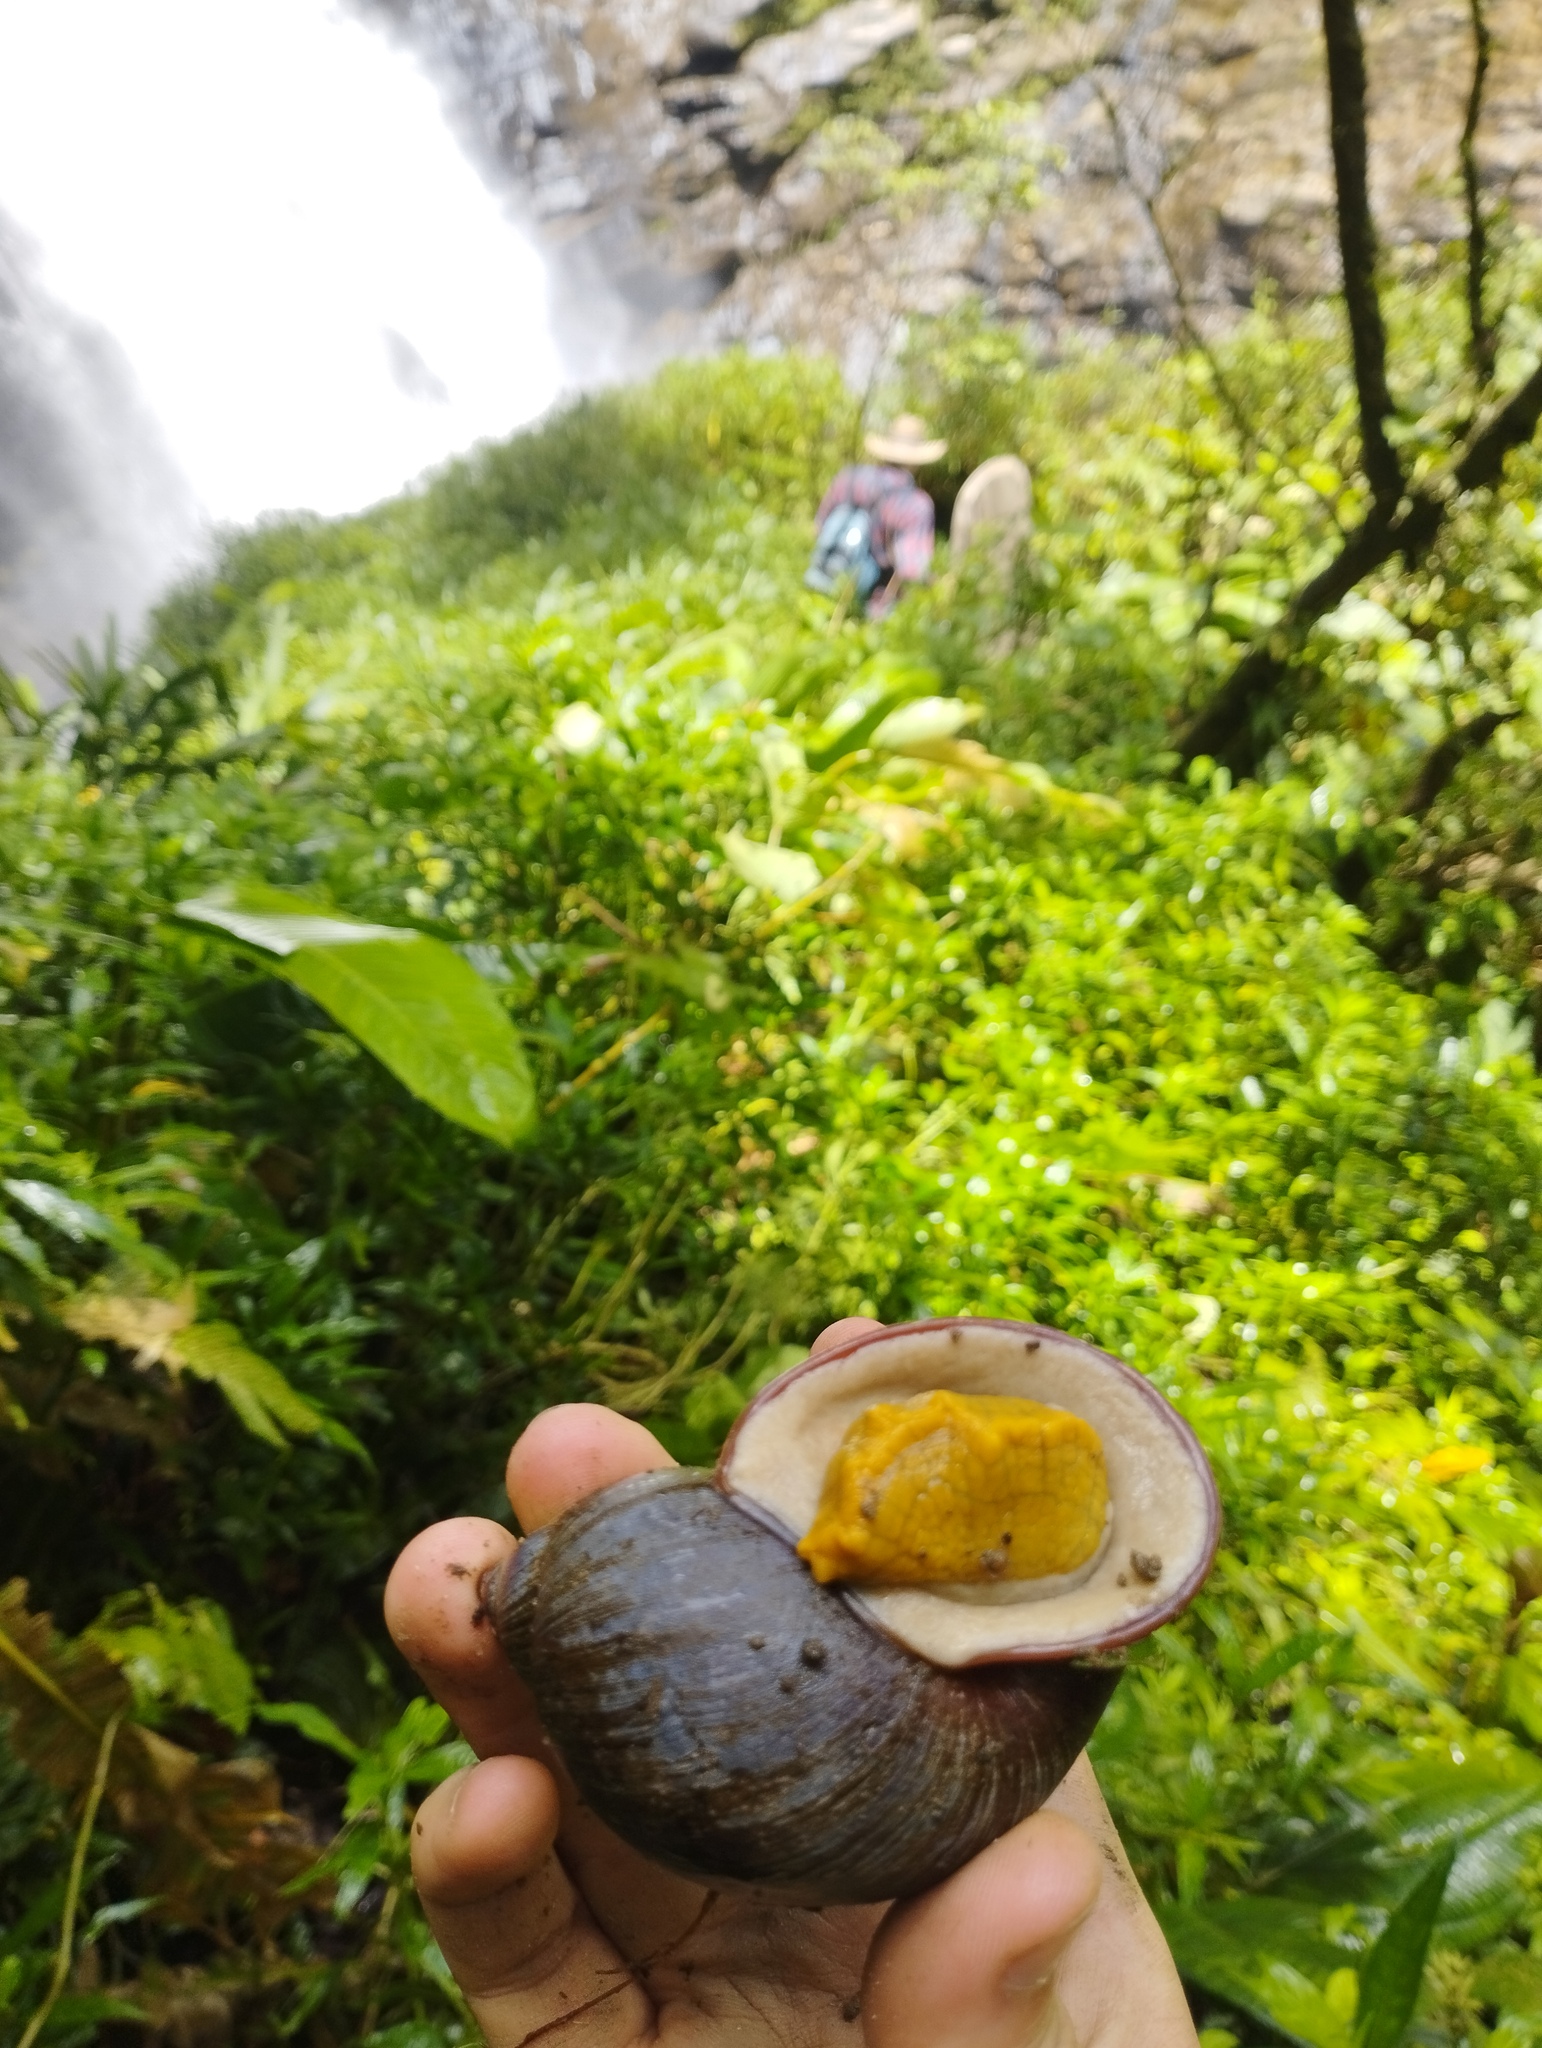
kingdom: Animalia
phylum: Mollusca
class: Gastropoda
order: Stylommatophora
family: Amphibulimidae
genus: Plekocheilus
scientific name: Plekocheilus gibbonius
